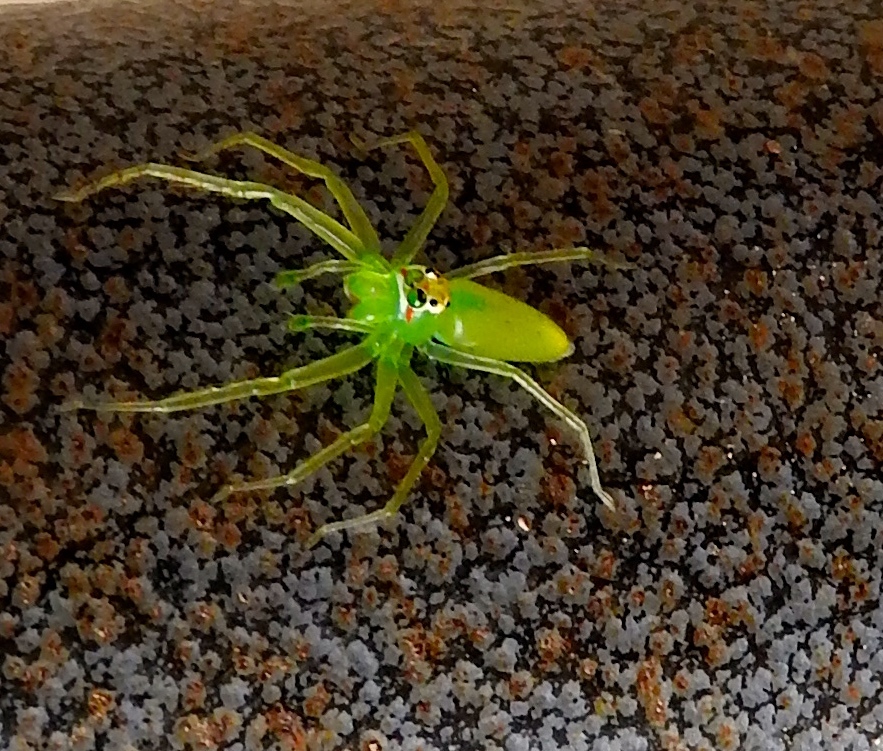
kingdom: Animalia
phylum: Arthropoda
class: Arachnida
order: Araneae
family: Salticidae
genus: Lyssomanes
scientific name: Lyssomanes
